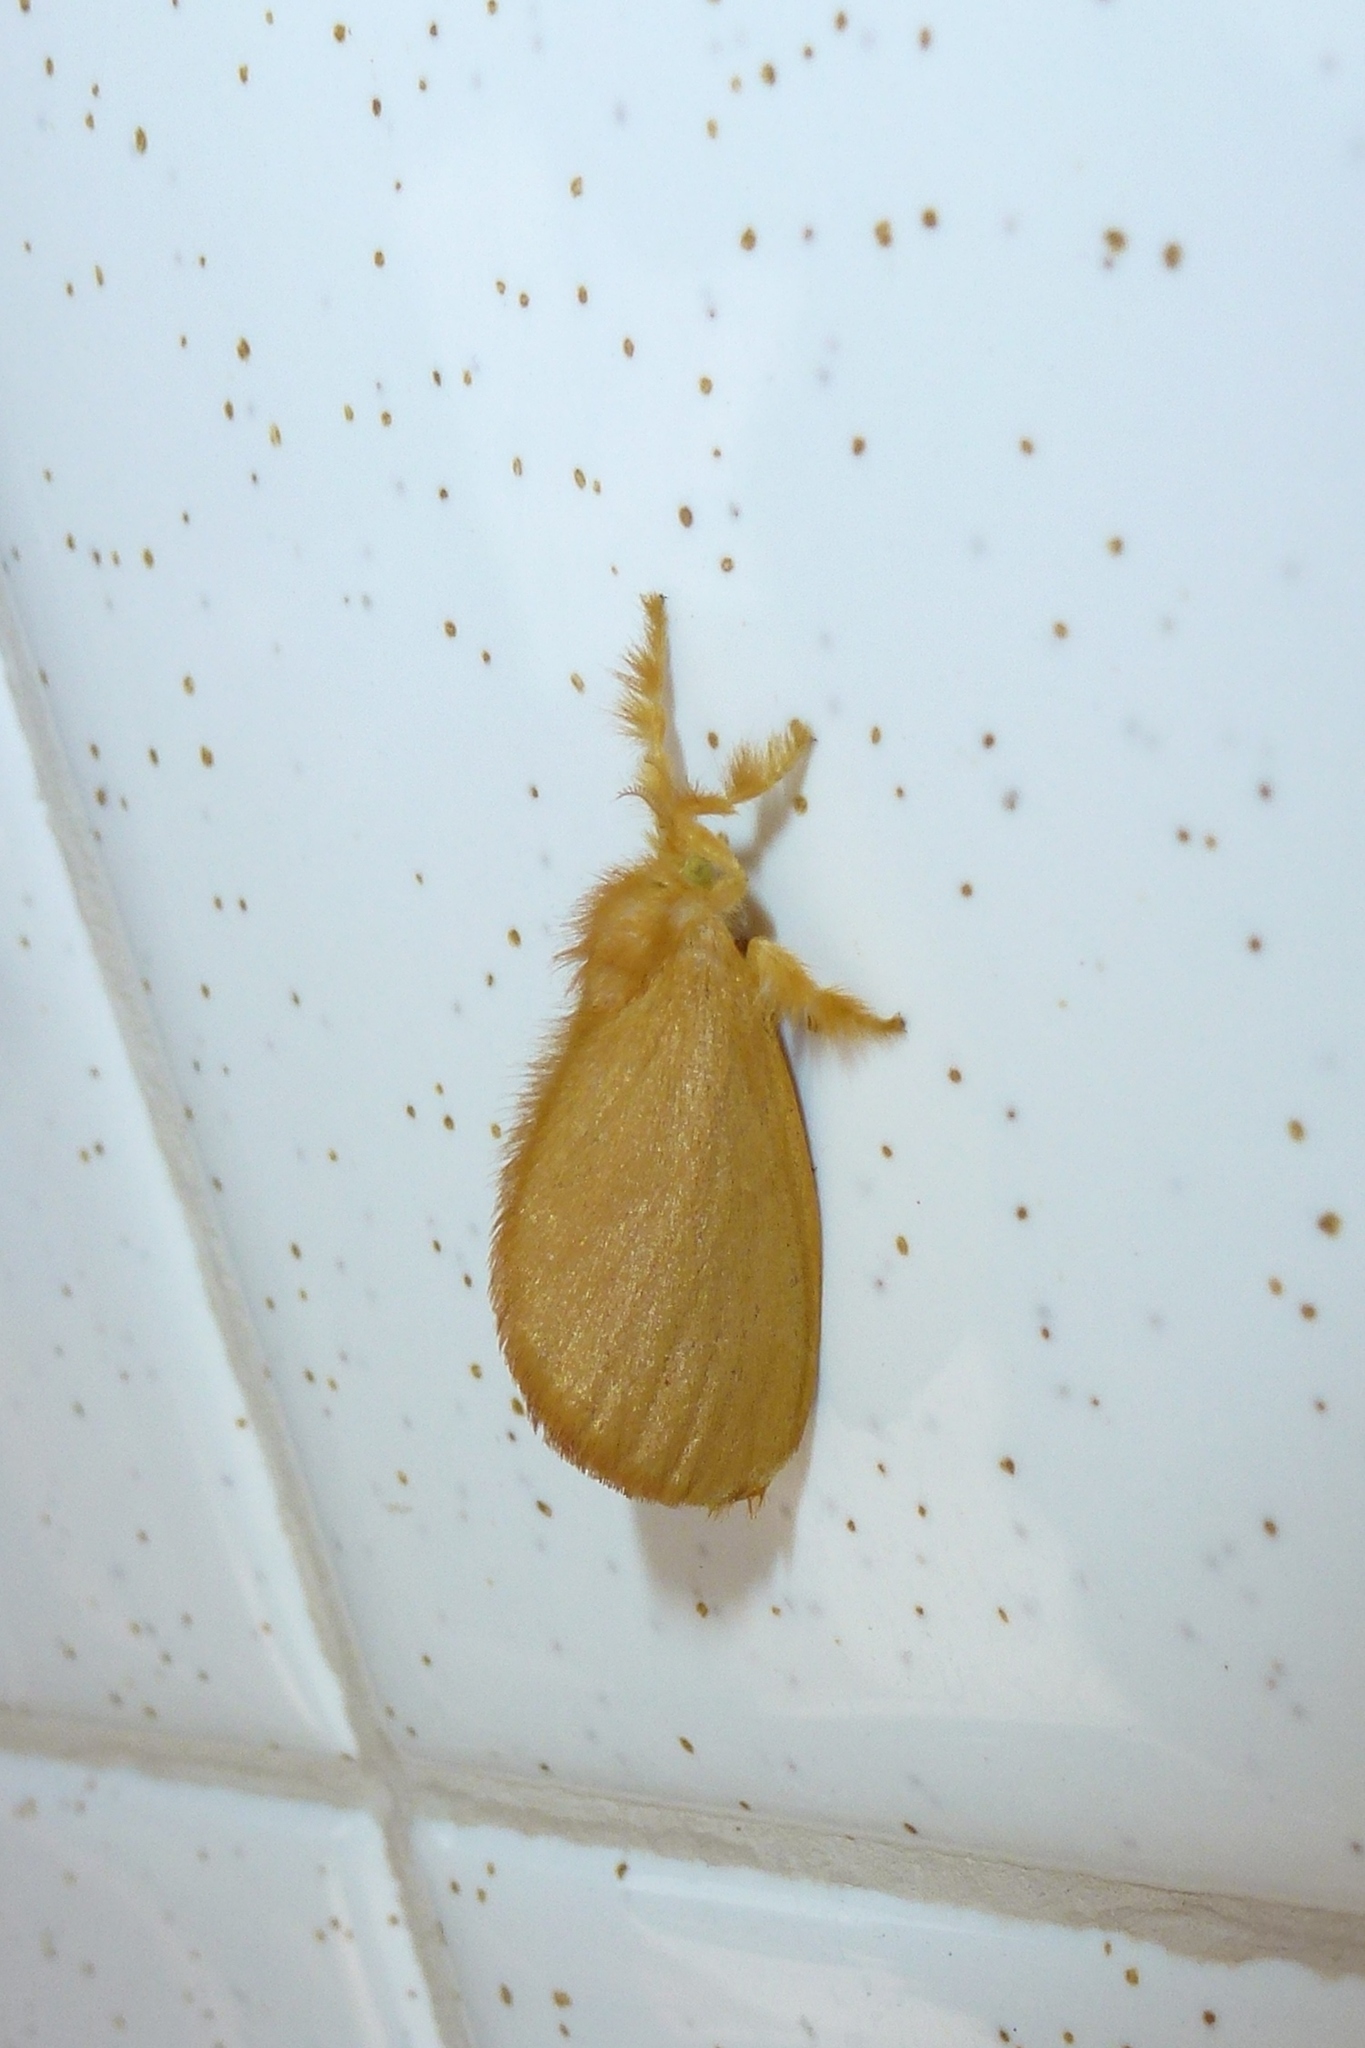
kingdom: Animalia
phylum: Arthropoda
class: Insecta
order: Lepidoptera
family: Dalceridae
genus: Dalcerides
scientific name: Dalcerides ingenita
